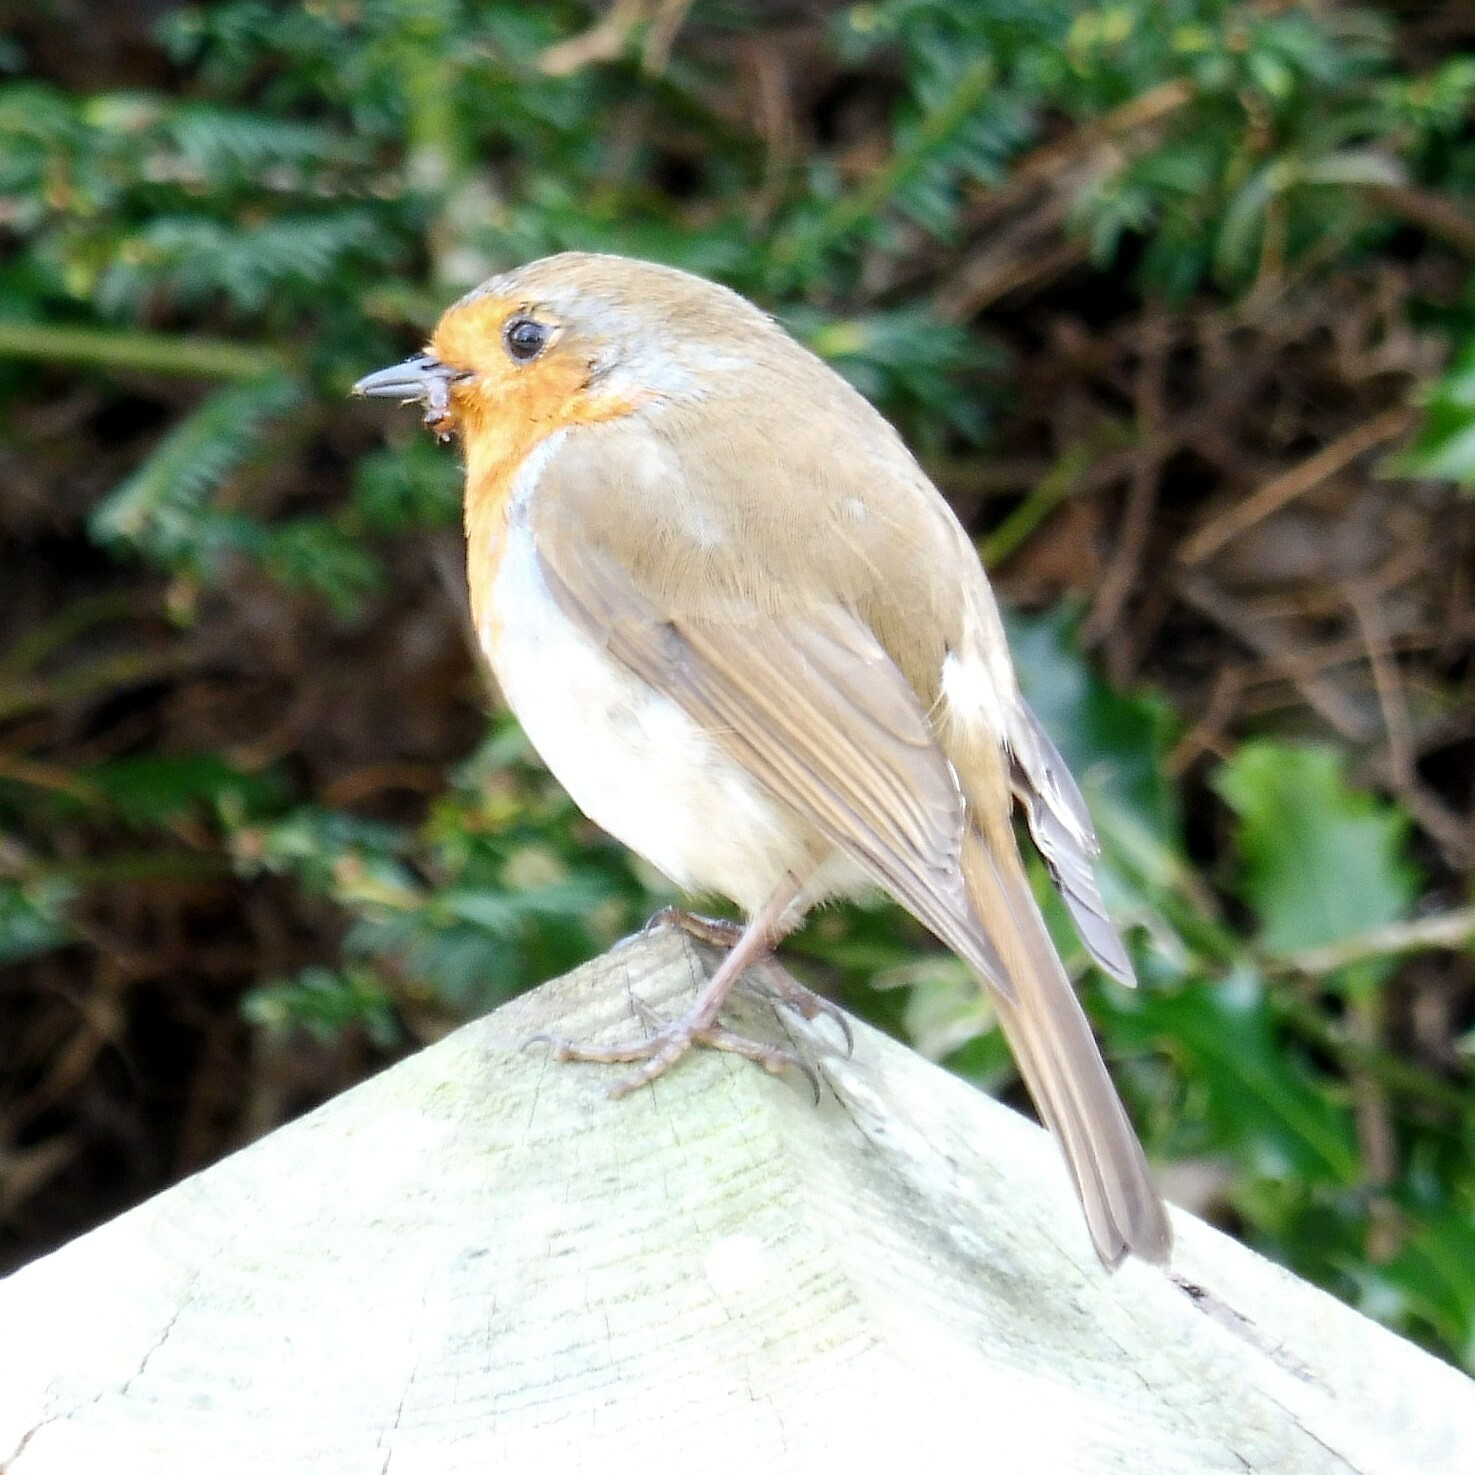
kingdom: Animalia
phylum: Chordata
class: Aves
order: Passeriformes
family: Muscicapidae
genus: Erithacus
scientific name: Erithacus rubecula
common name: European robin
